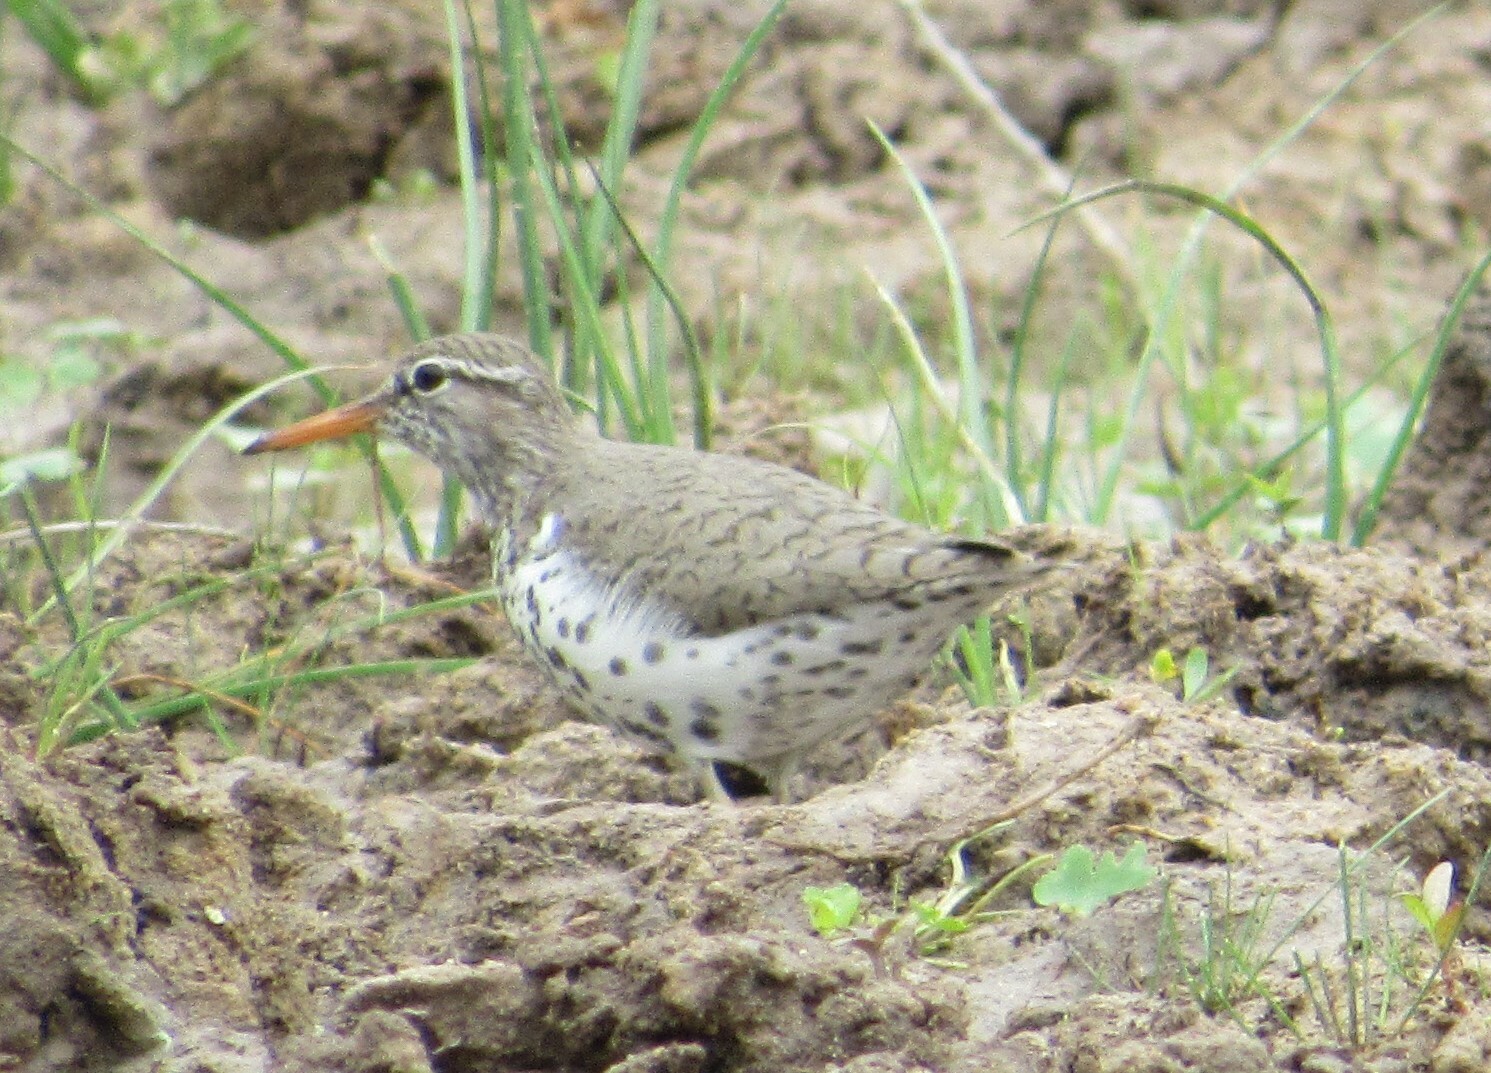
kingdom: Animalia
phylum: Chordata
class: Aves
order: Charadriiformes
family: Scolopacidae
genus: Actitis
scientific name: Actitis macularius
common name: Spotted sandpiper
